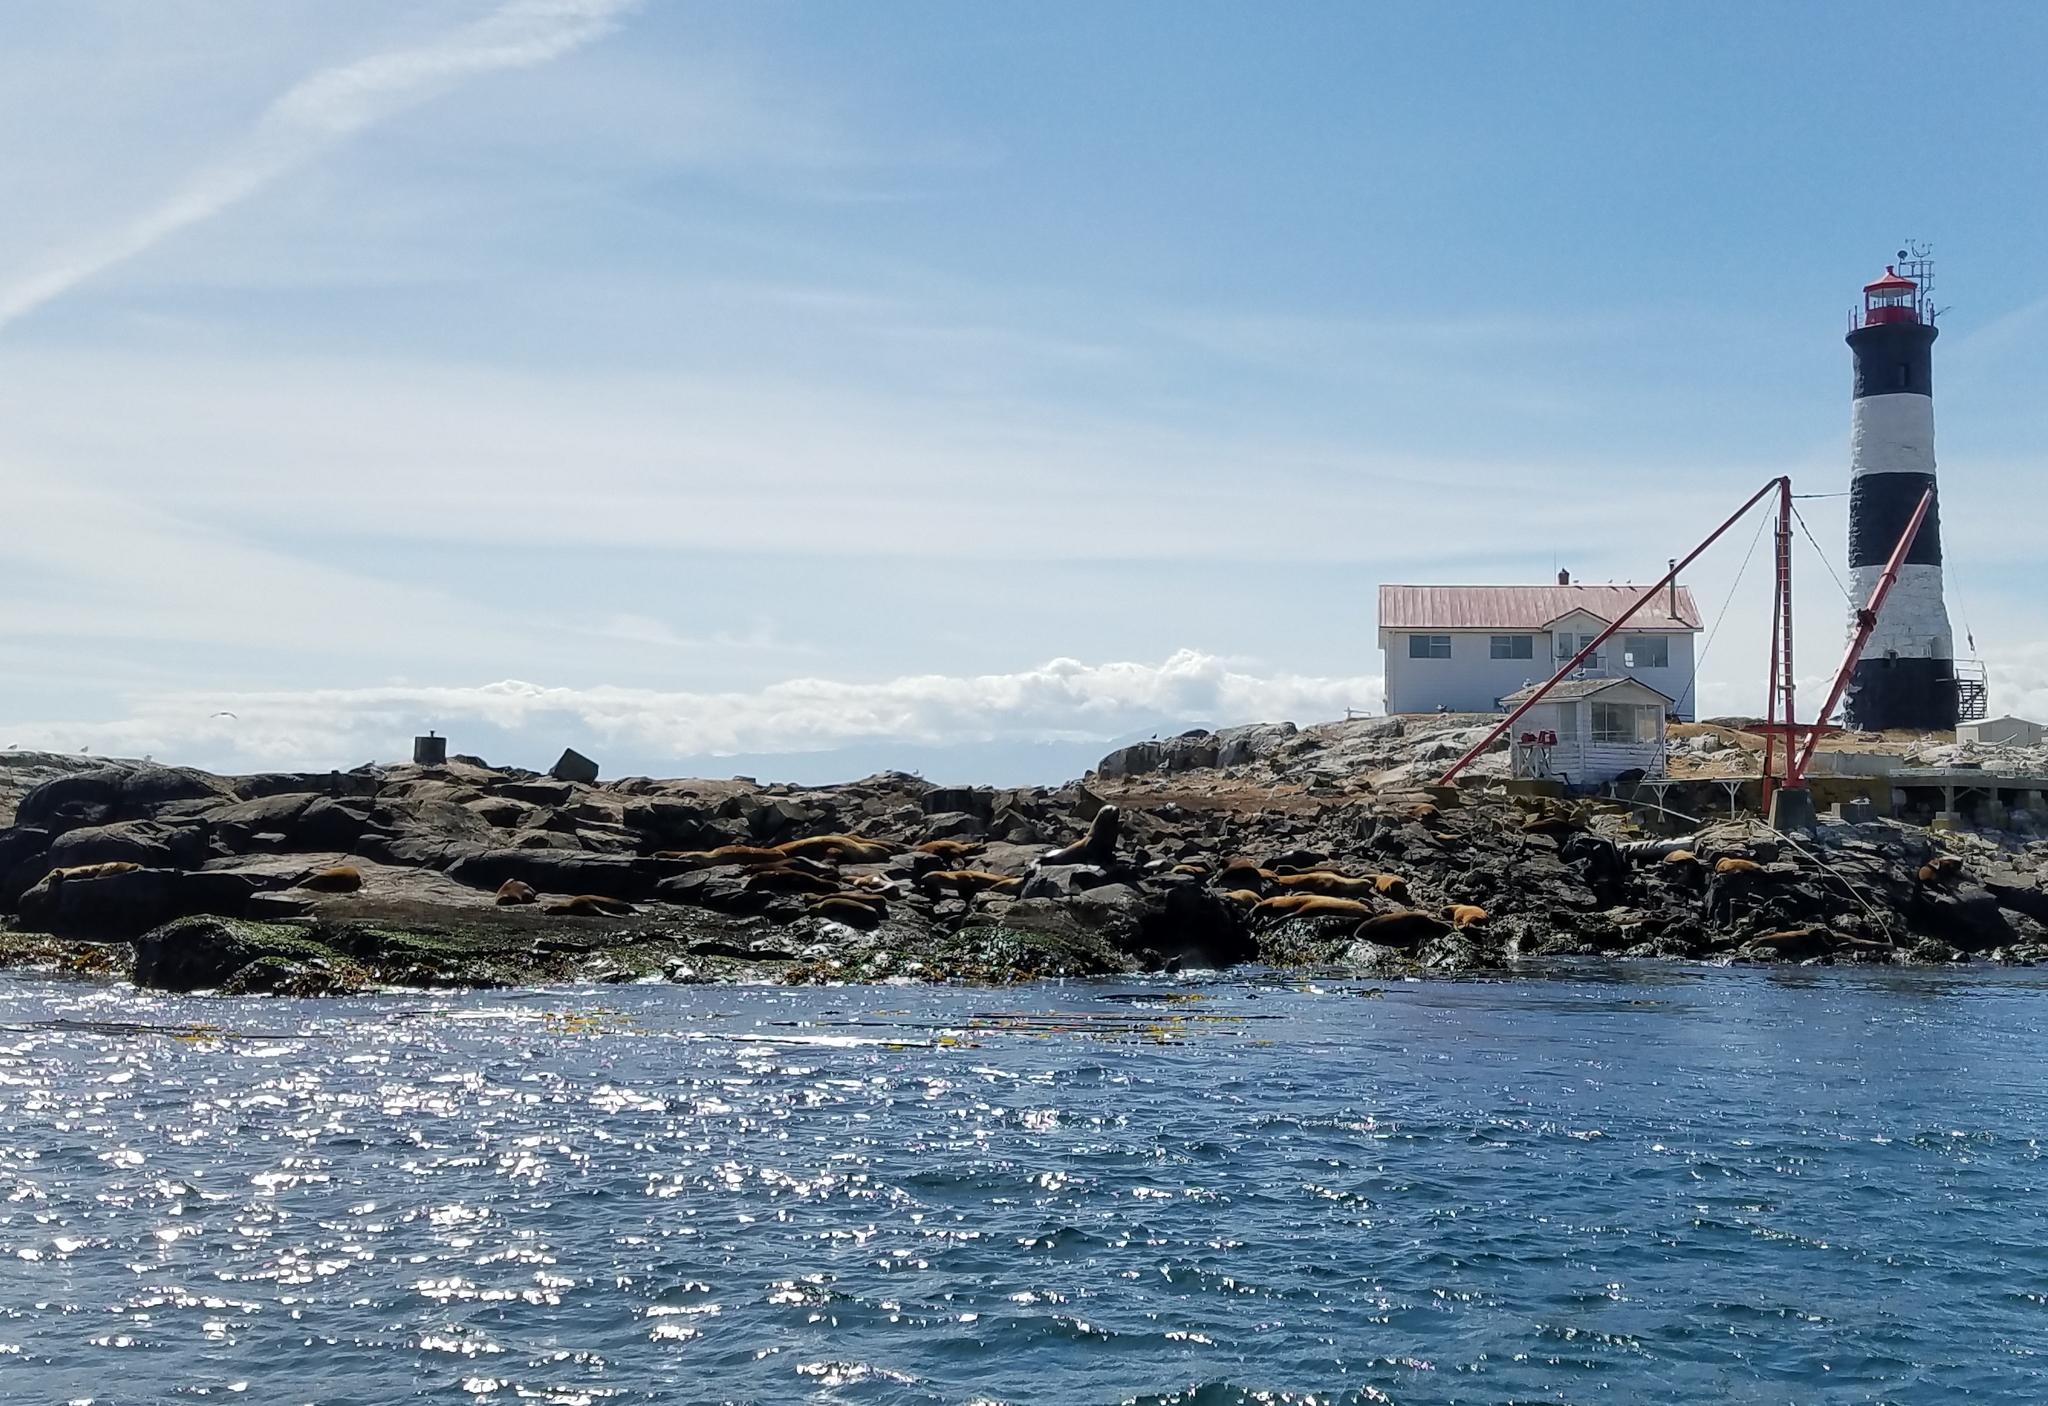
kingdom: Animalia
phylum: Chordata
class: Mammalia
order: Carnivora
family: Otariidae
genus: Eumetopias
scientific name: Eumetopias jubatus
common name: Steller sea lion
